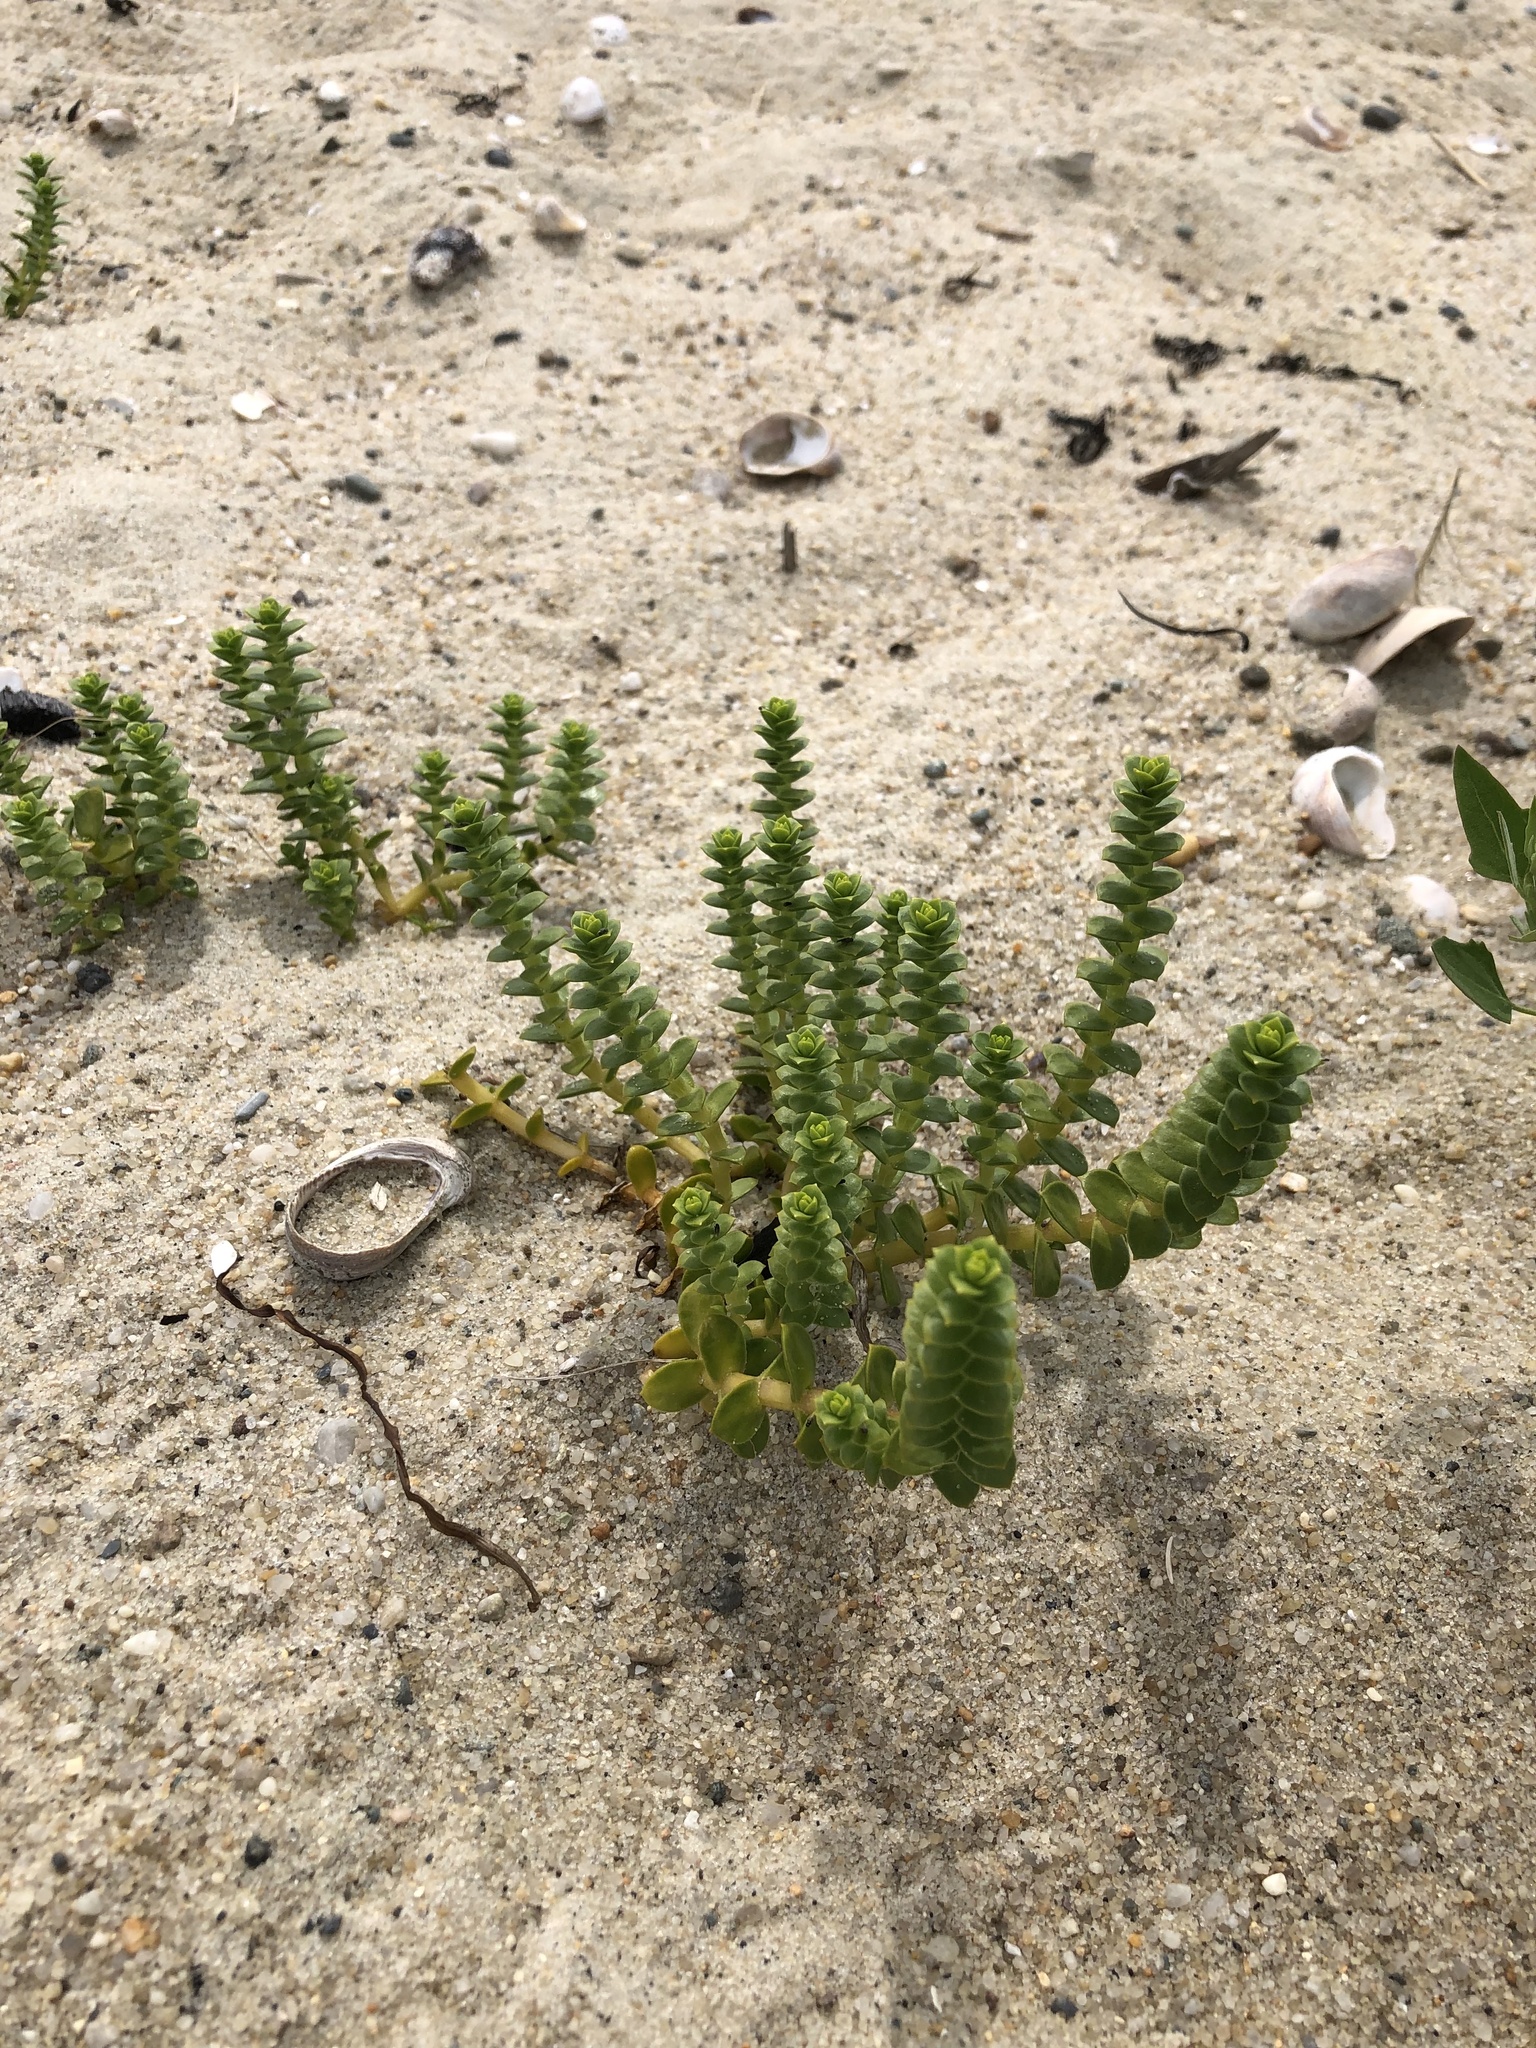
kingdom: Plantae
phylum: Tracheophyta
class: Magnoliopsida
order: Caryophyllales
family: Caryophyllaceae
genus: Honckenya
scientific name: Honckenya peploides
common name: Sea sandwort
